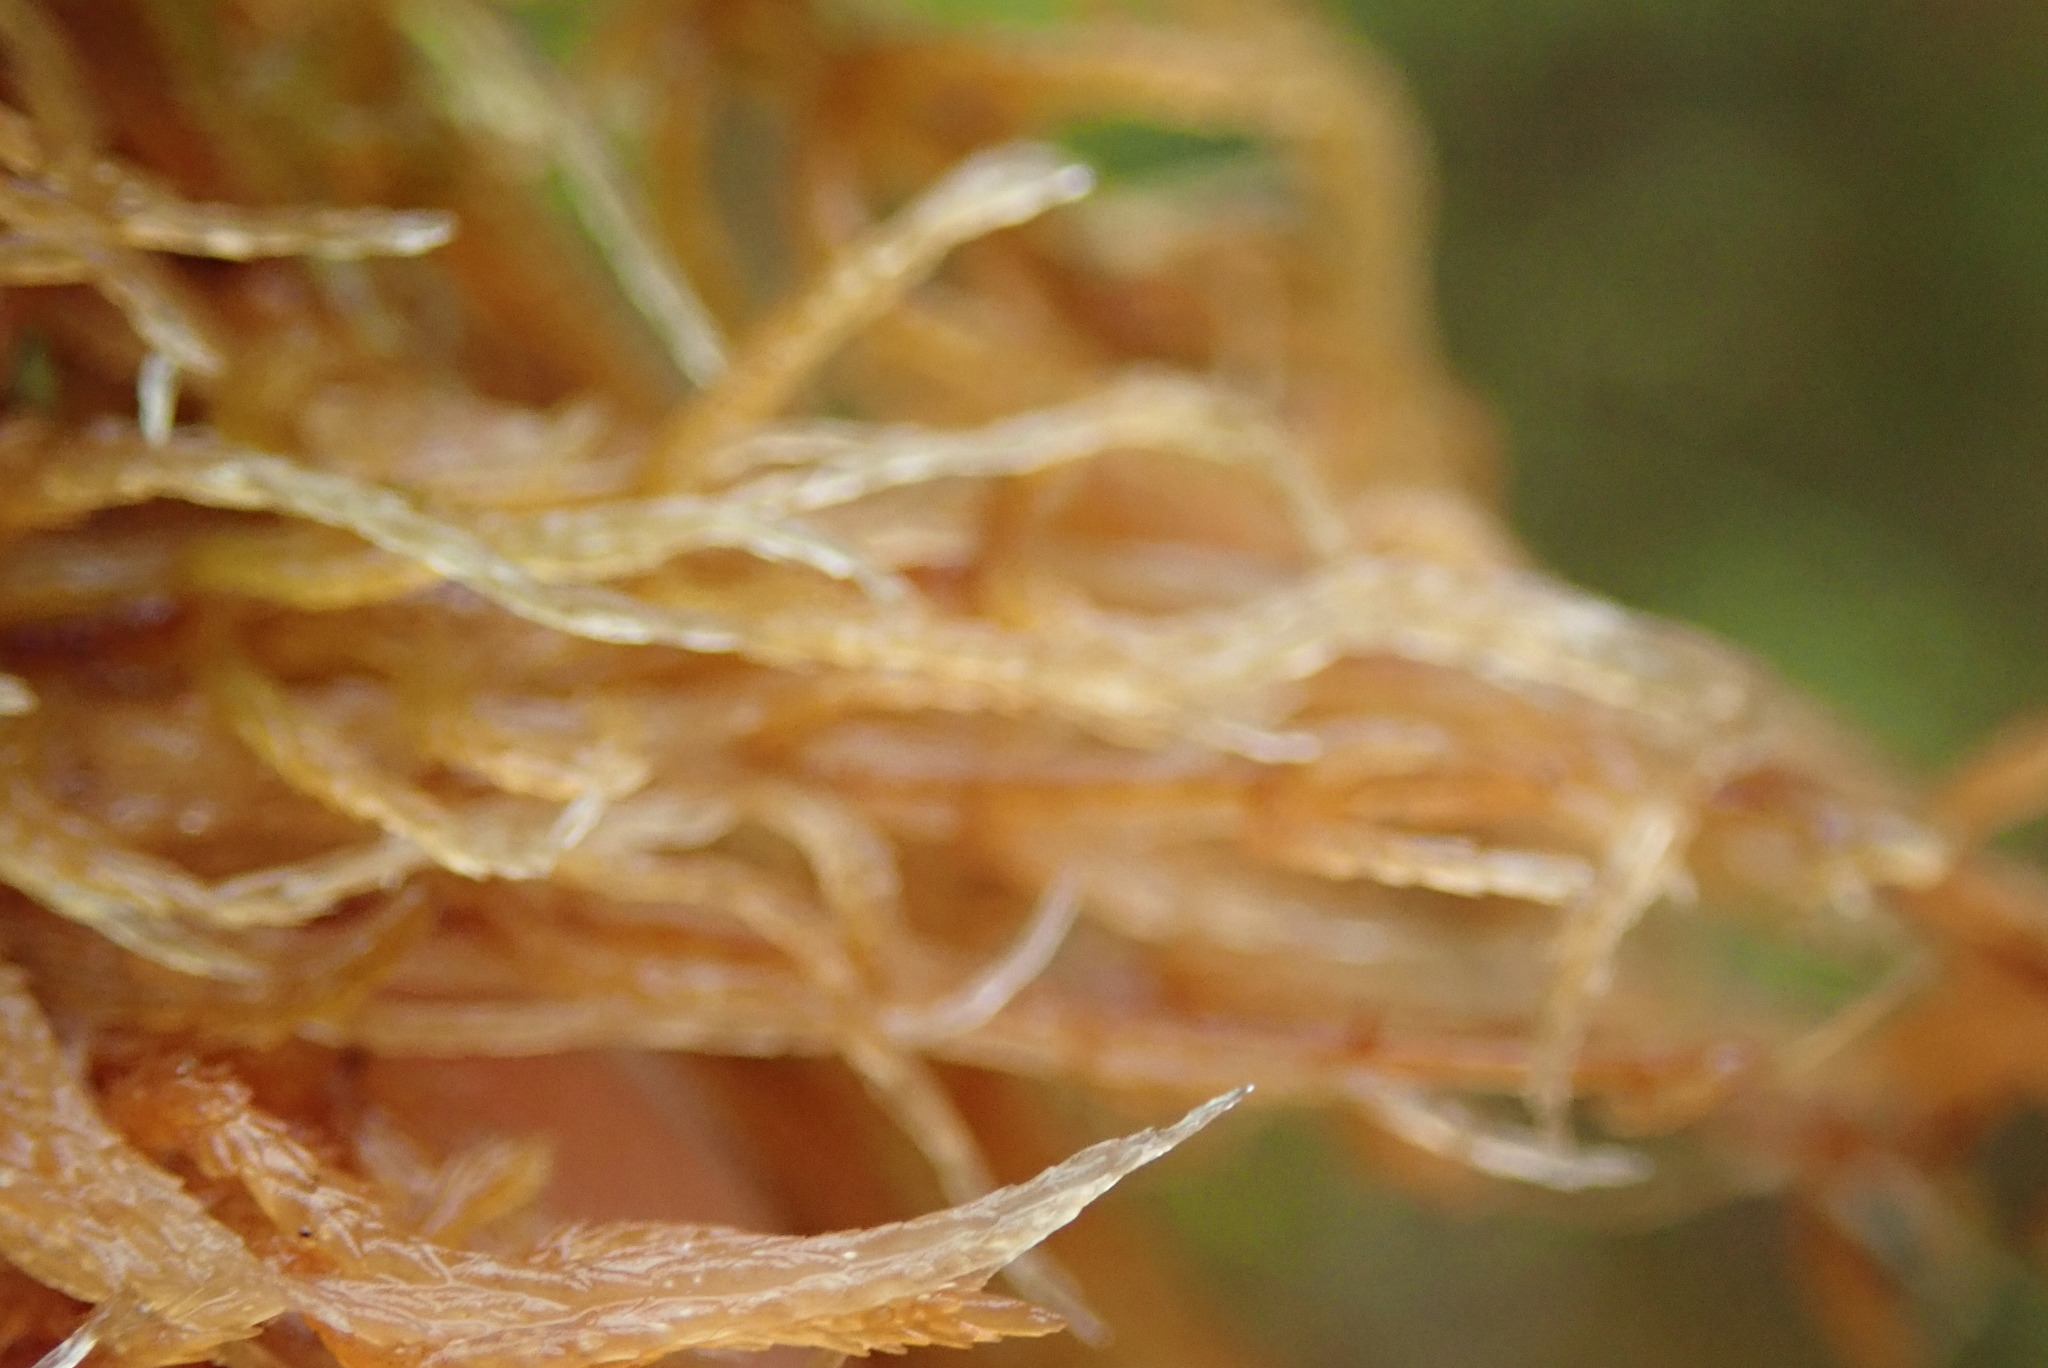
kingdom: Plantae
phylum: Bryophyta
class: Sphagnopsida
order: Sphagnales
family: Sphagnaceae
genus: Sphagnum
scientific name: Sphagnum fuscum
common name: Brown peat moss
